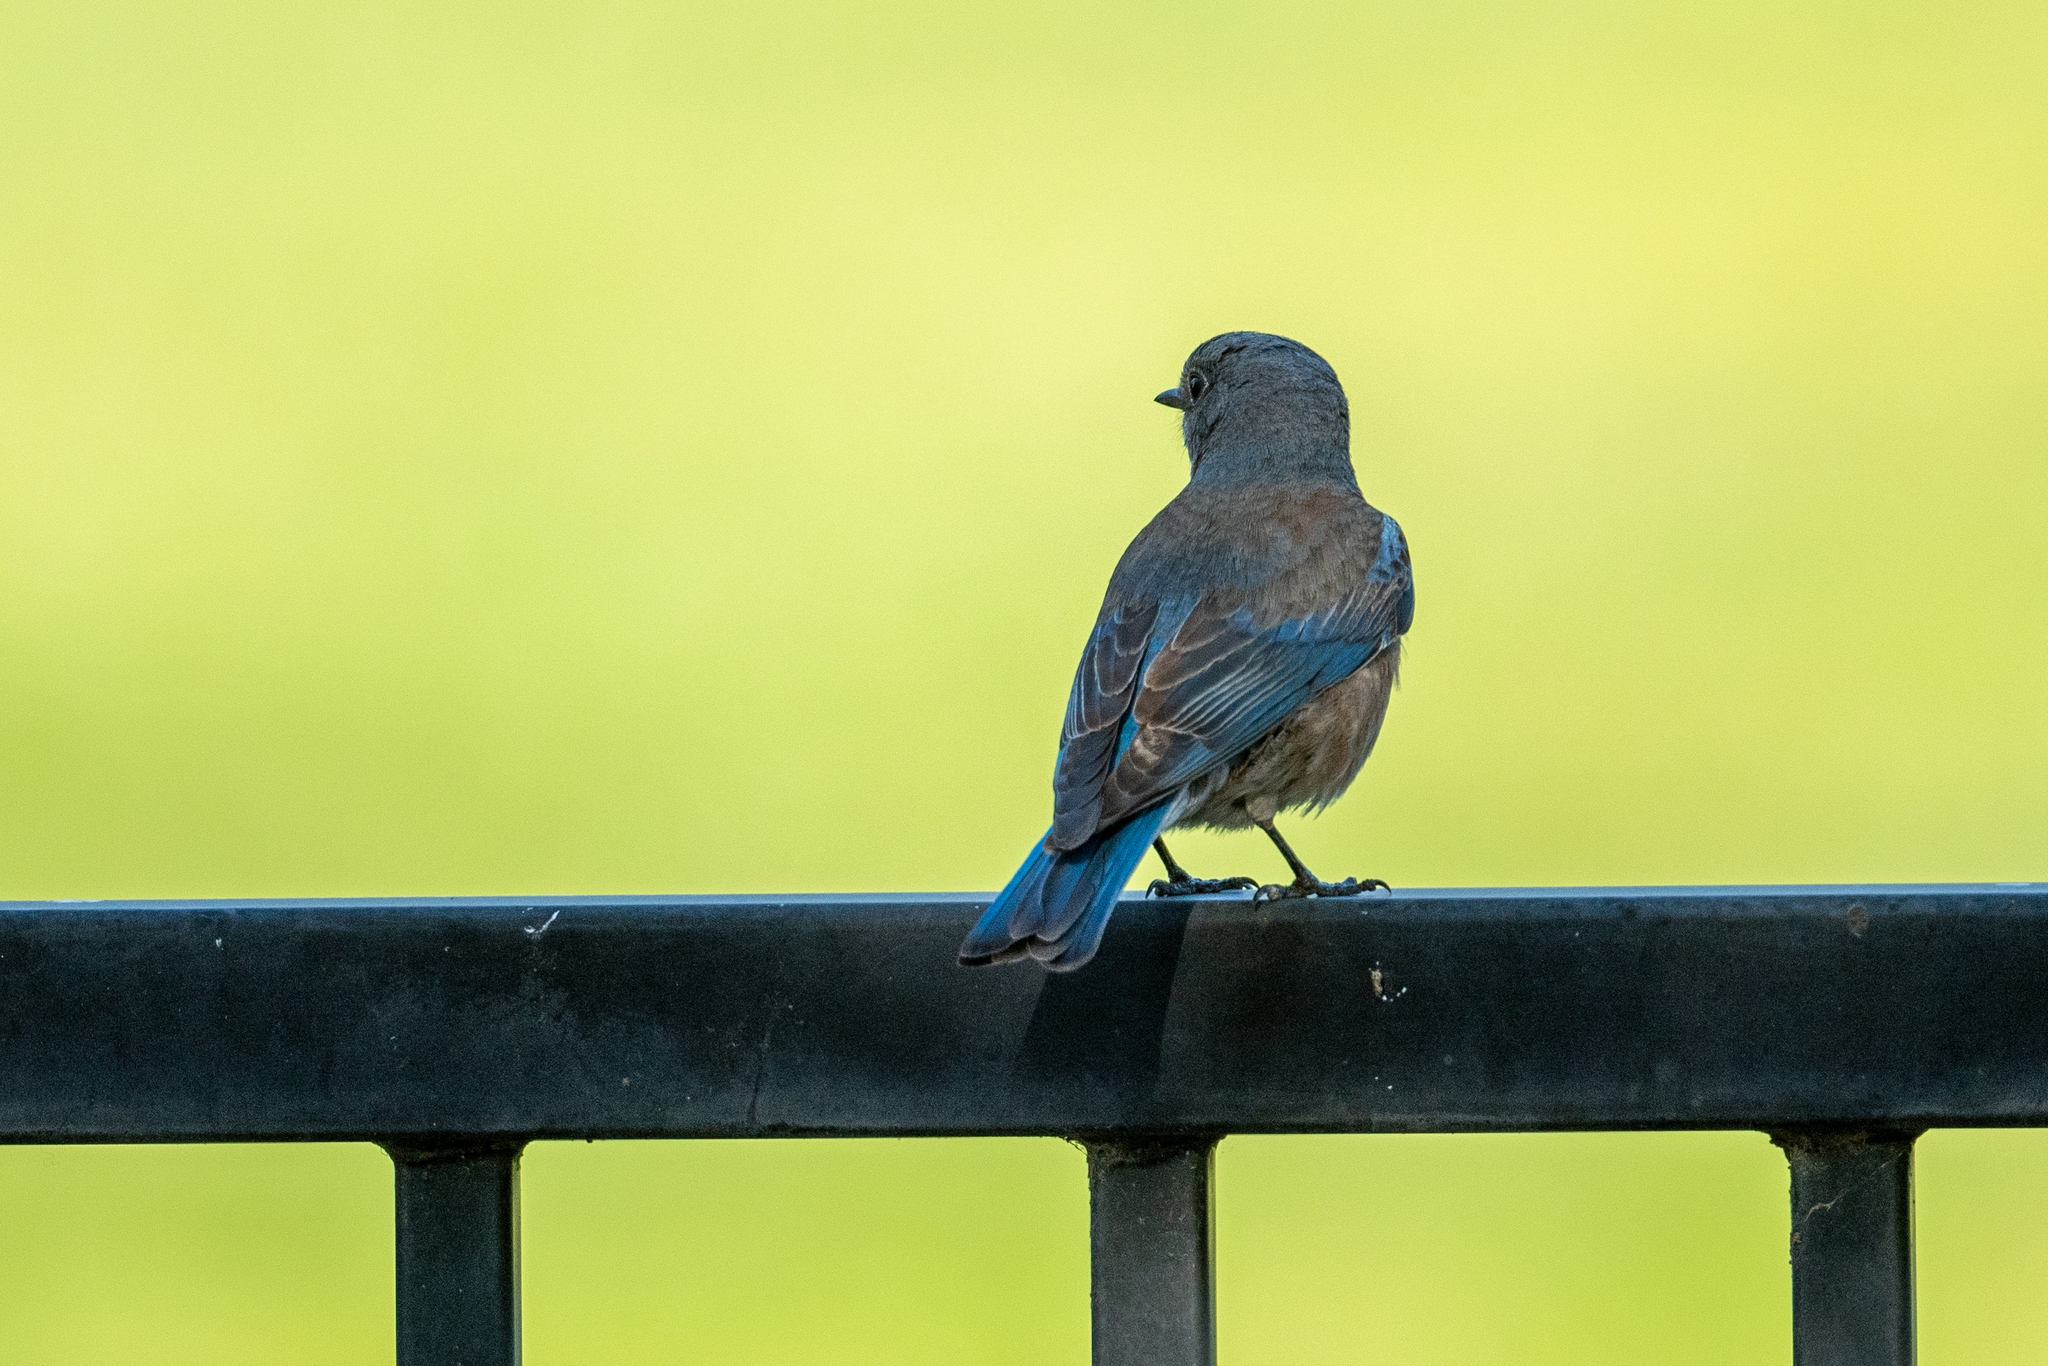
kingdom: Animalia
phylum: Chordata
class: Aves
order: Passeriformes
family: Turdidae
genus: Sialia
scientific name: Sialia mexicana
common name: Western bluebird
